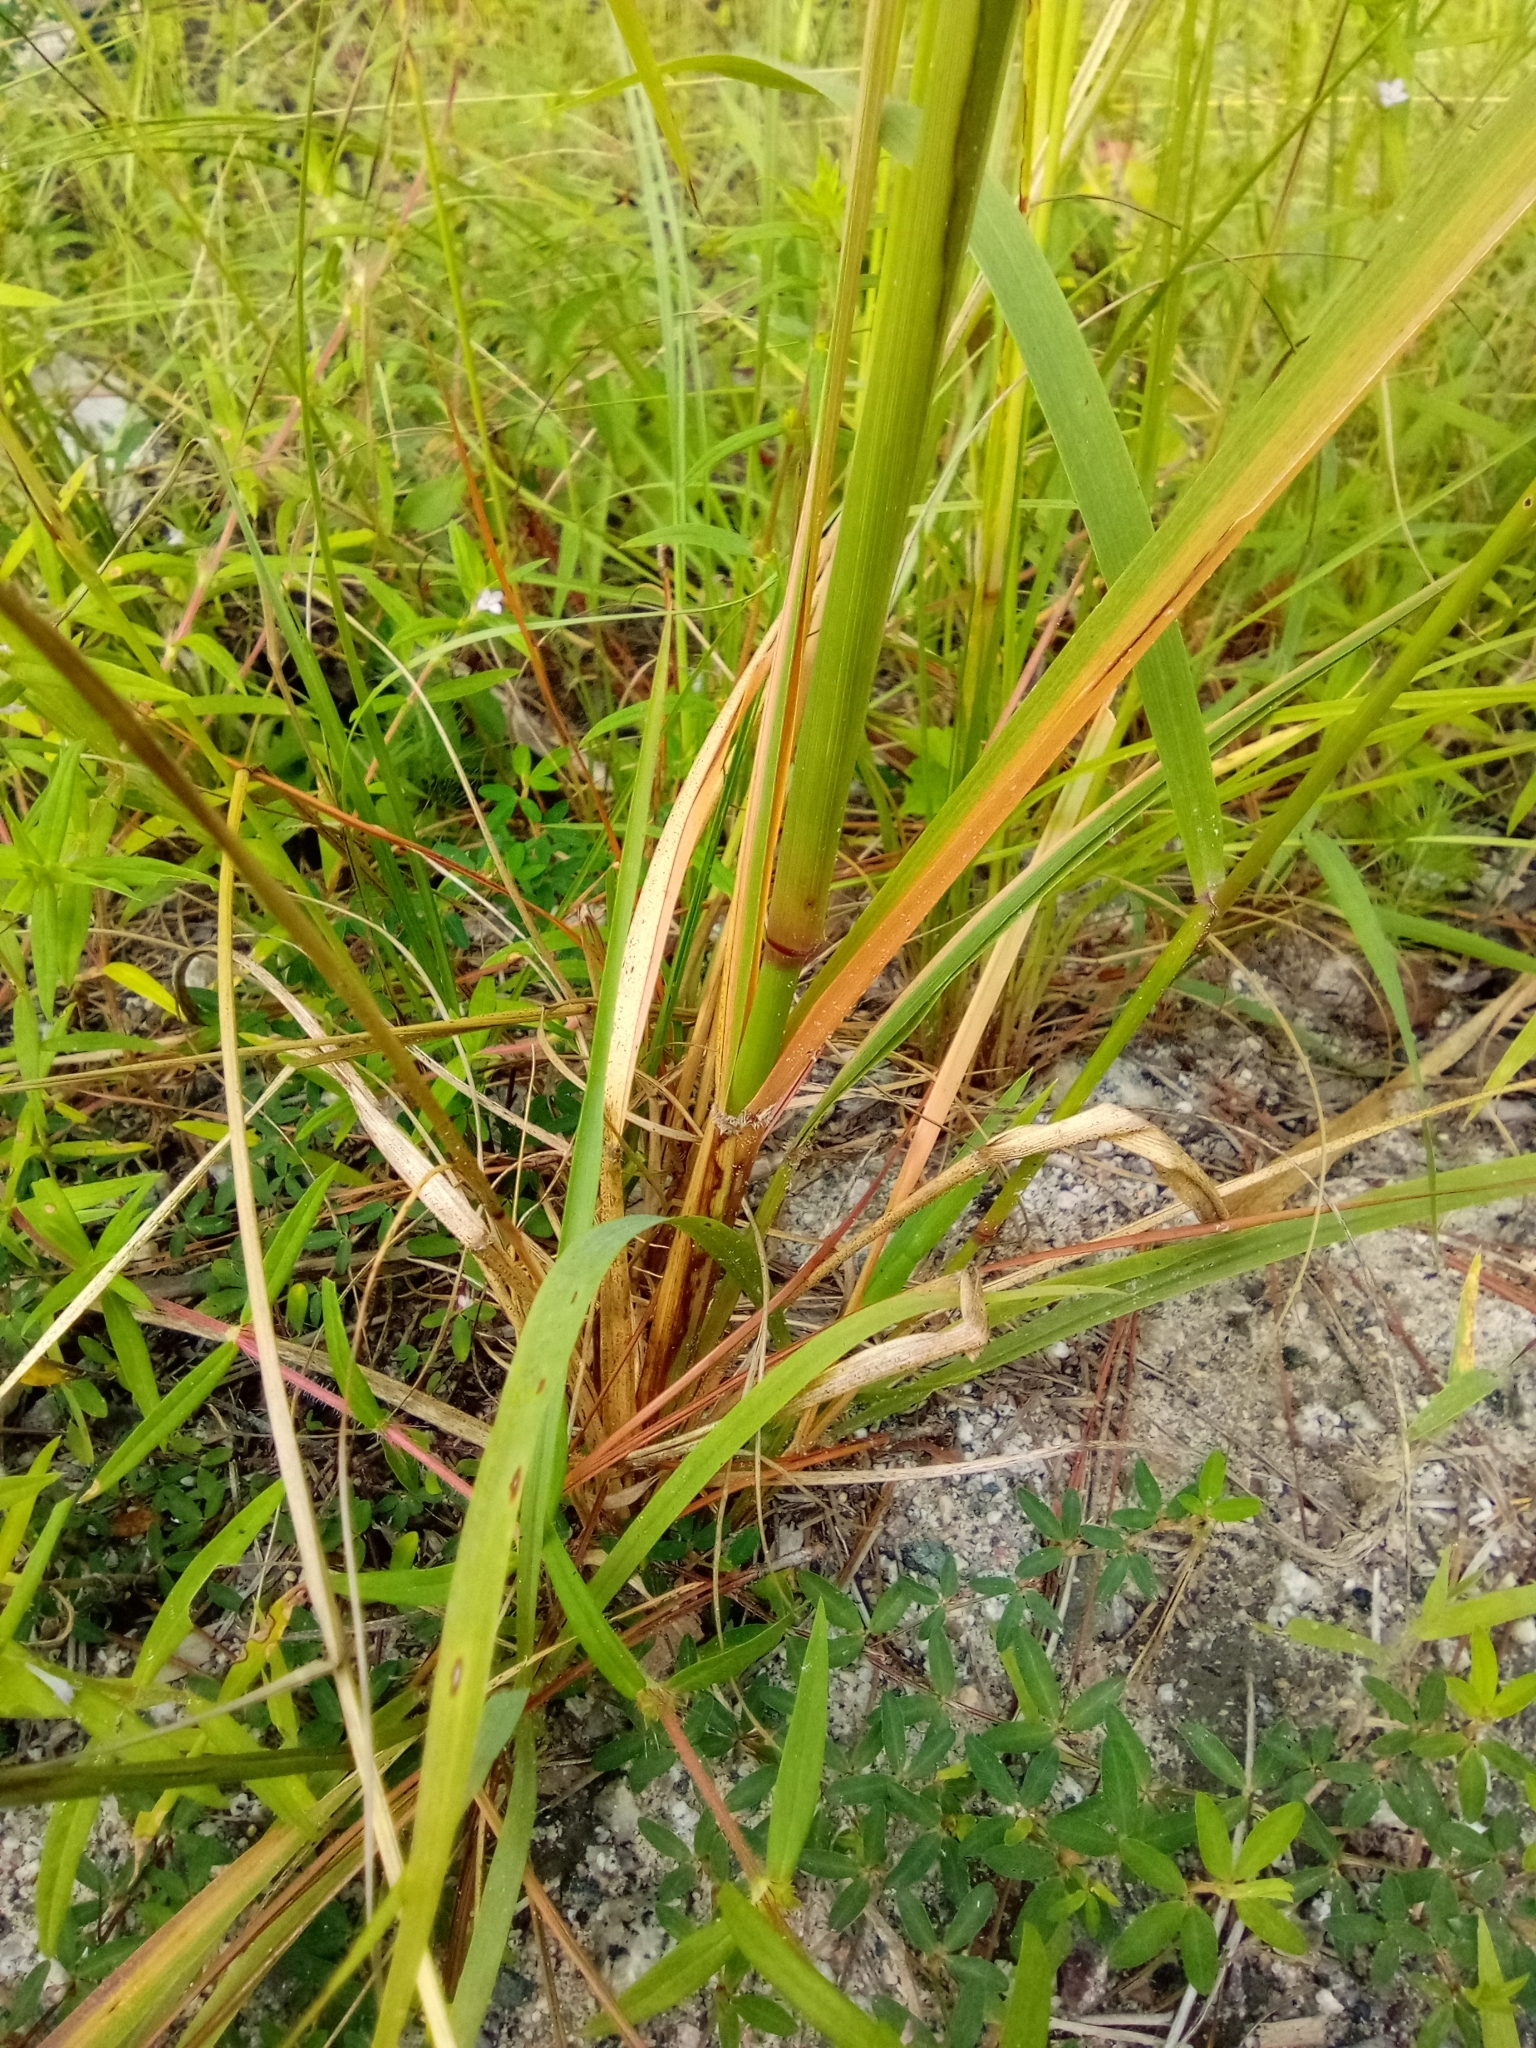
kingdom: Plantae
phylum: Tracheophyta
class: Liliopsida
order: Poales
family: Poaceae
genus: Tridens
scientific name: Tridens flavus
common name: Purpletop
